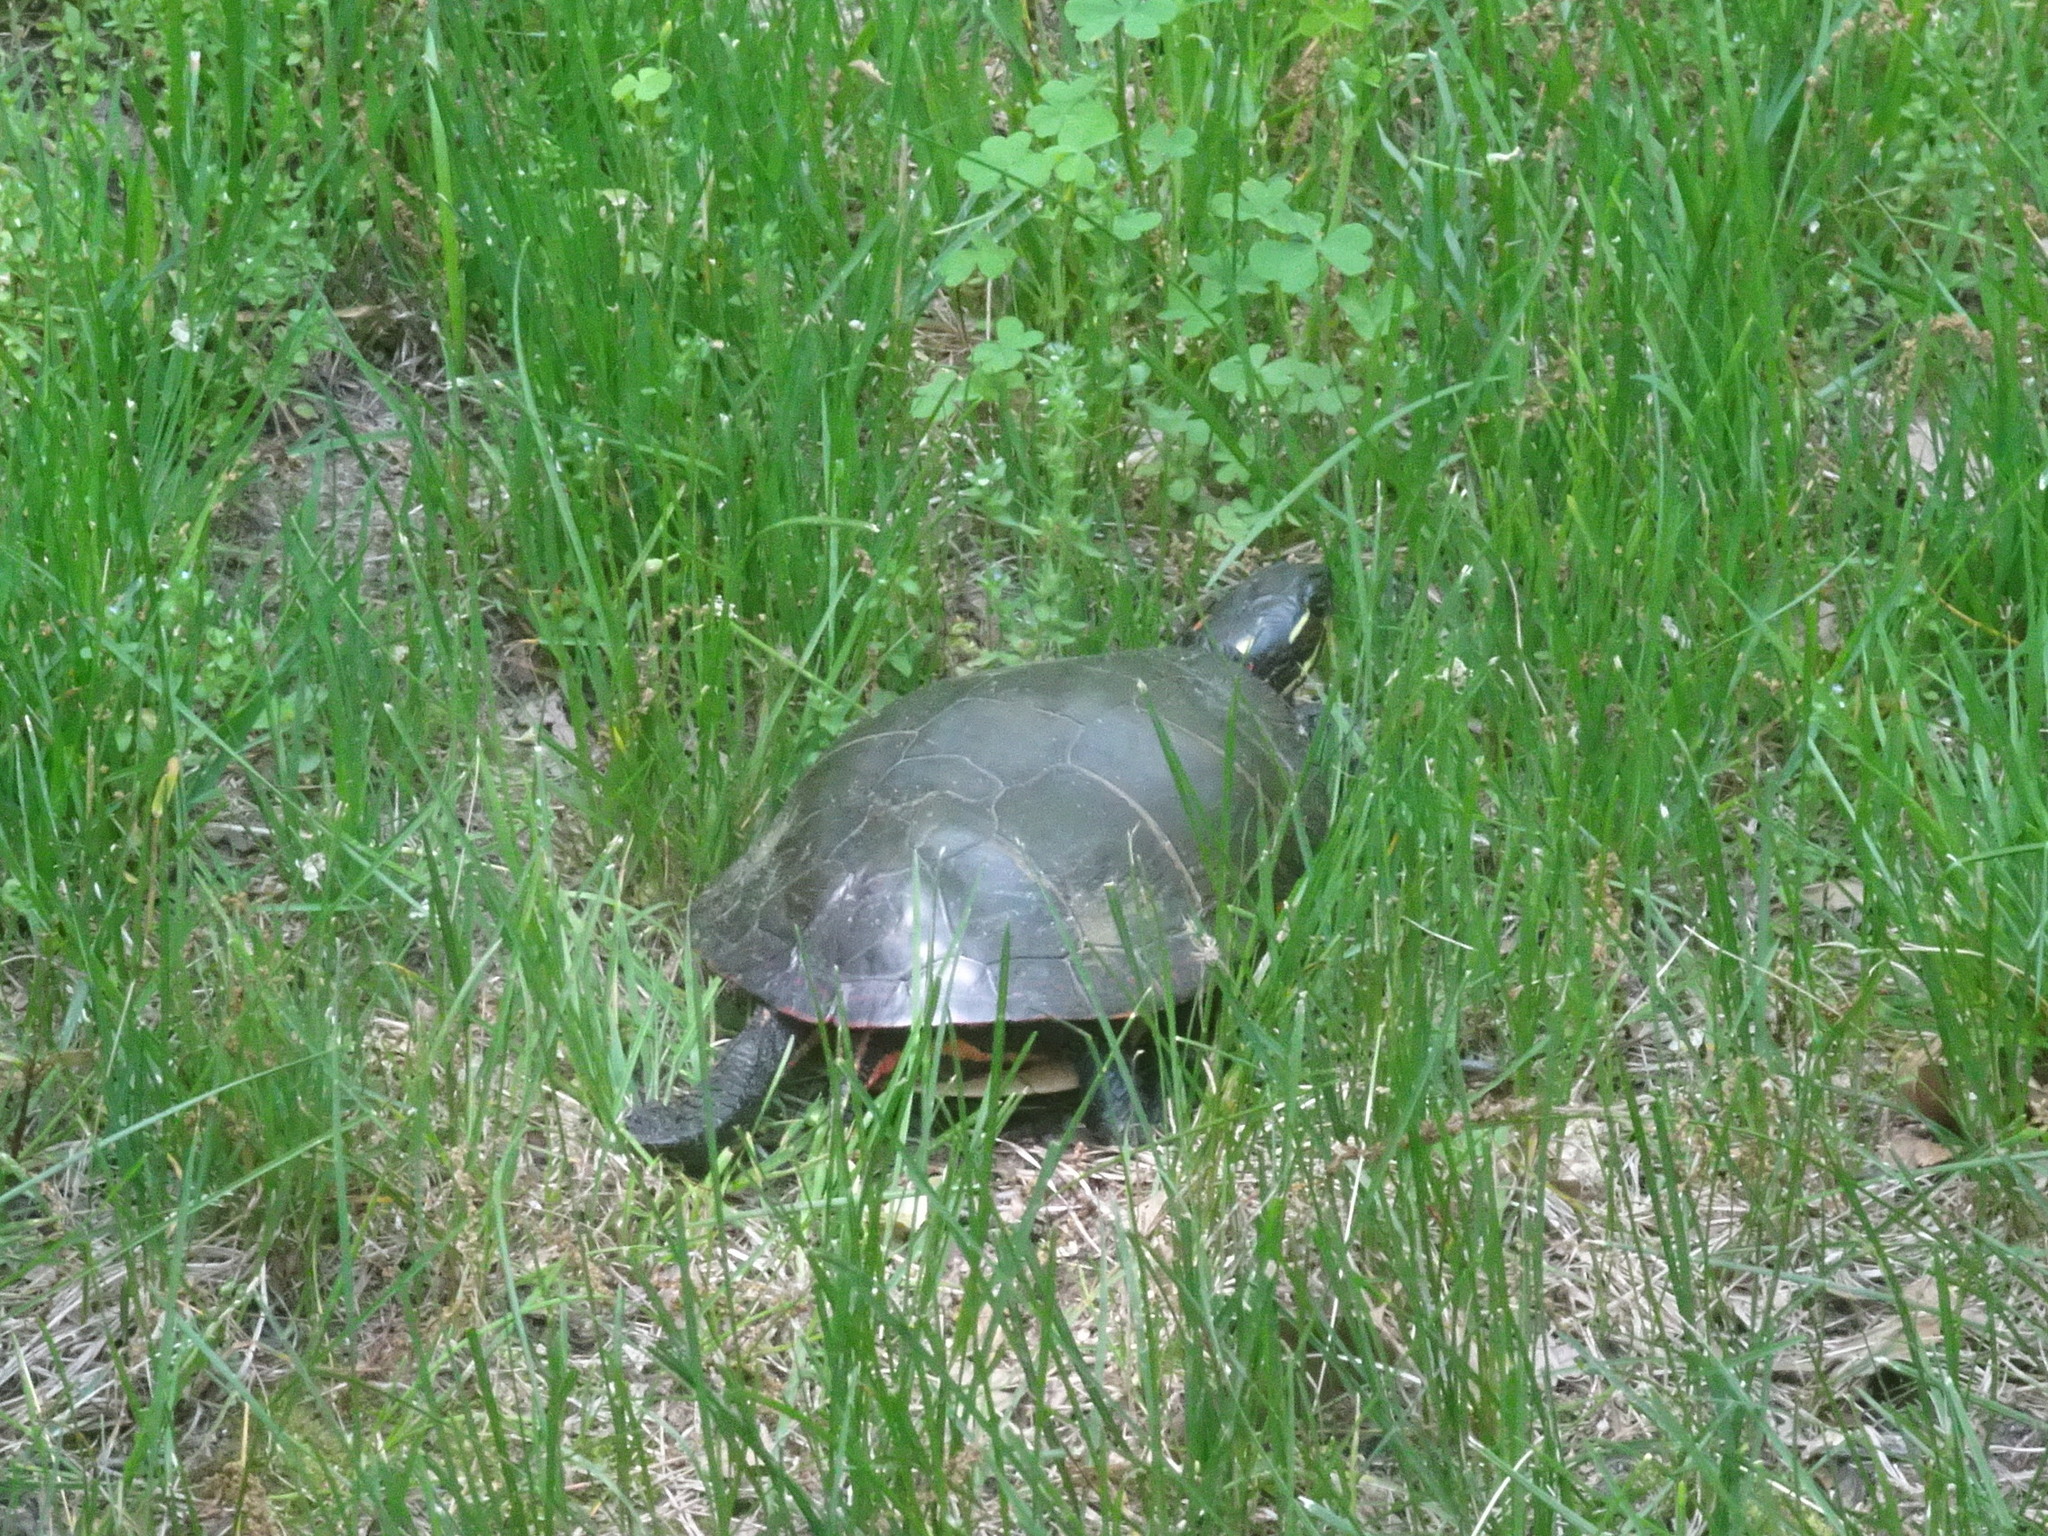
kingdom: Animalia
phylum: Chordata
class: Testudines
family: Emydidae
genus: Chrysemys
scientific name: Chrysemys picta
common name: Painted turtle
